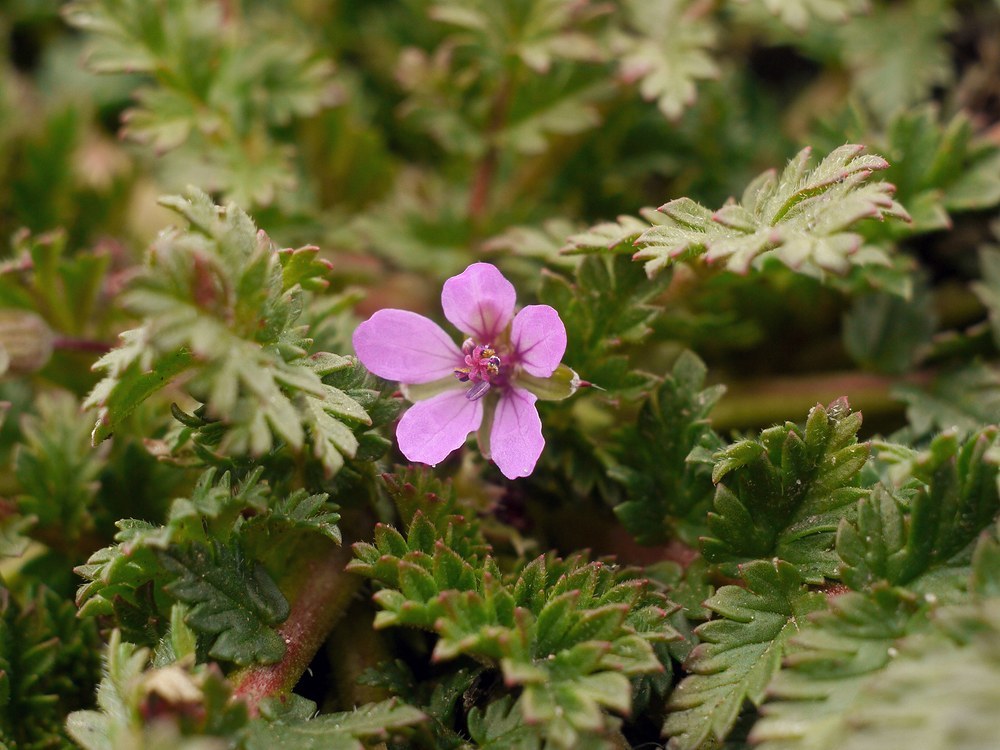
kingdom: Plantae
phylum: Tracheophyta
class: Magnoliopsida
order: Geraniales
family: Geraniaceae
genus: Erodium
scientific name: Erodium cicutarium
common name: Common stork's-bill
